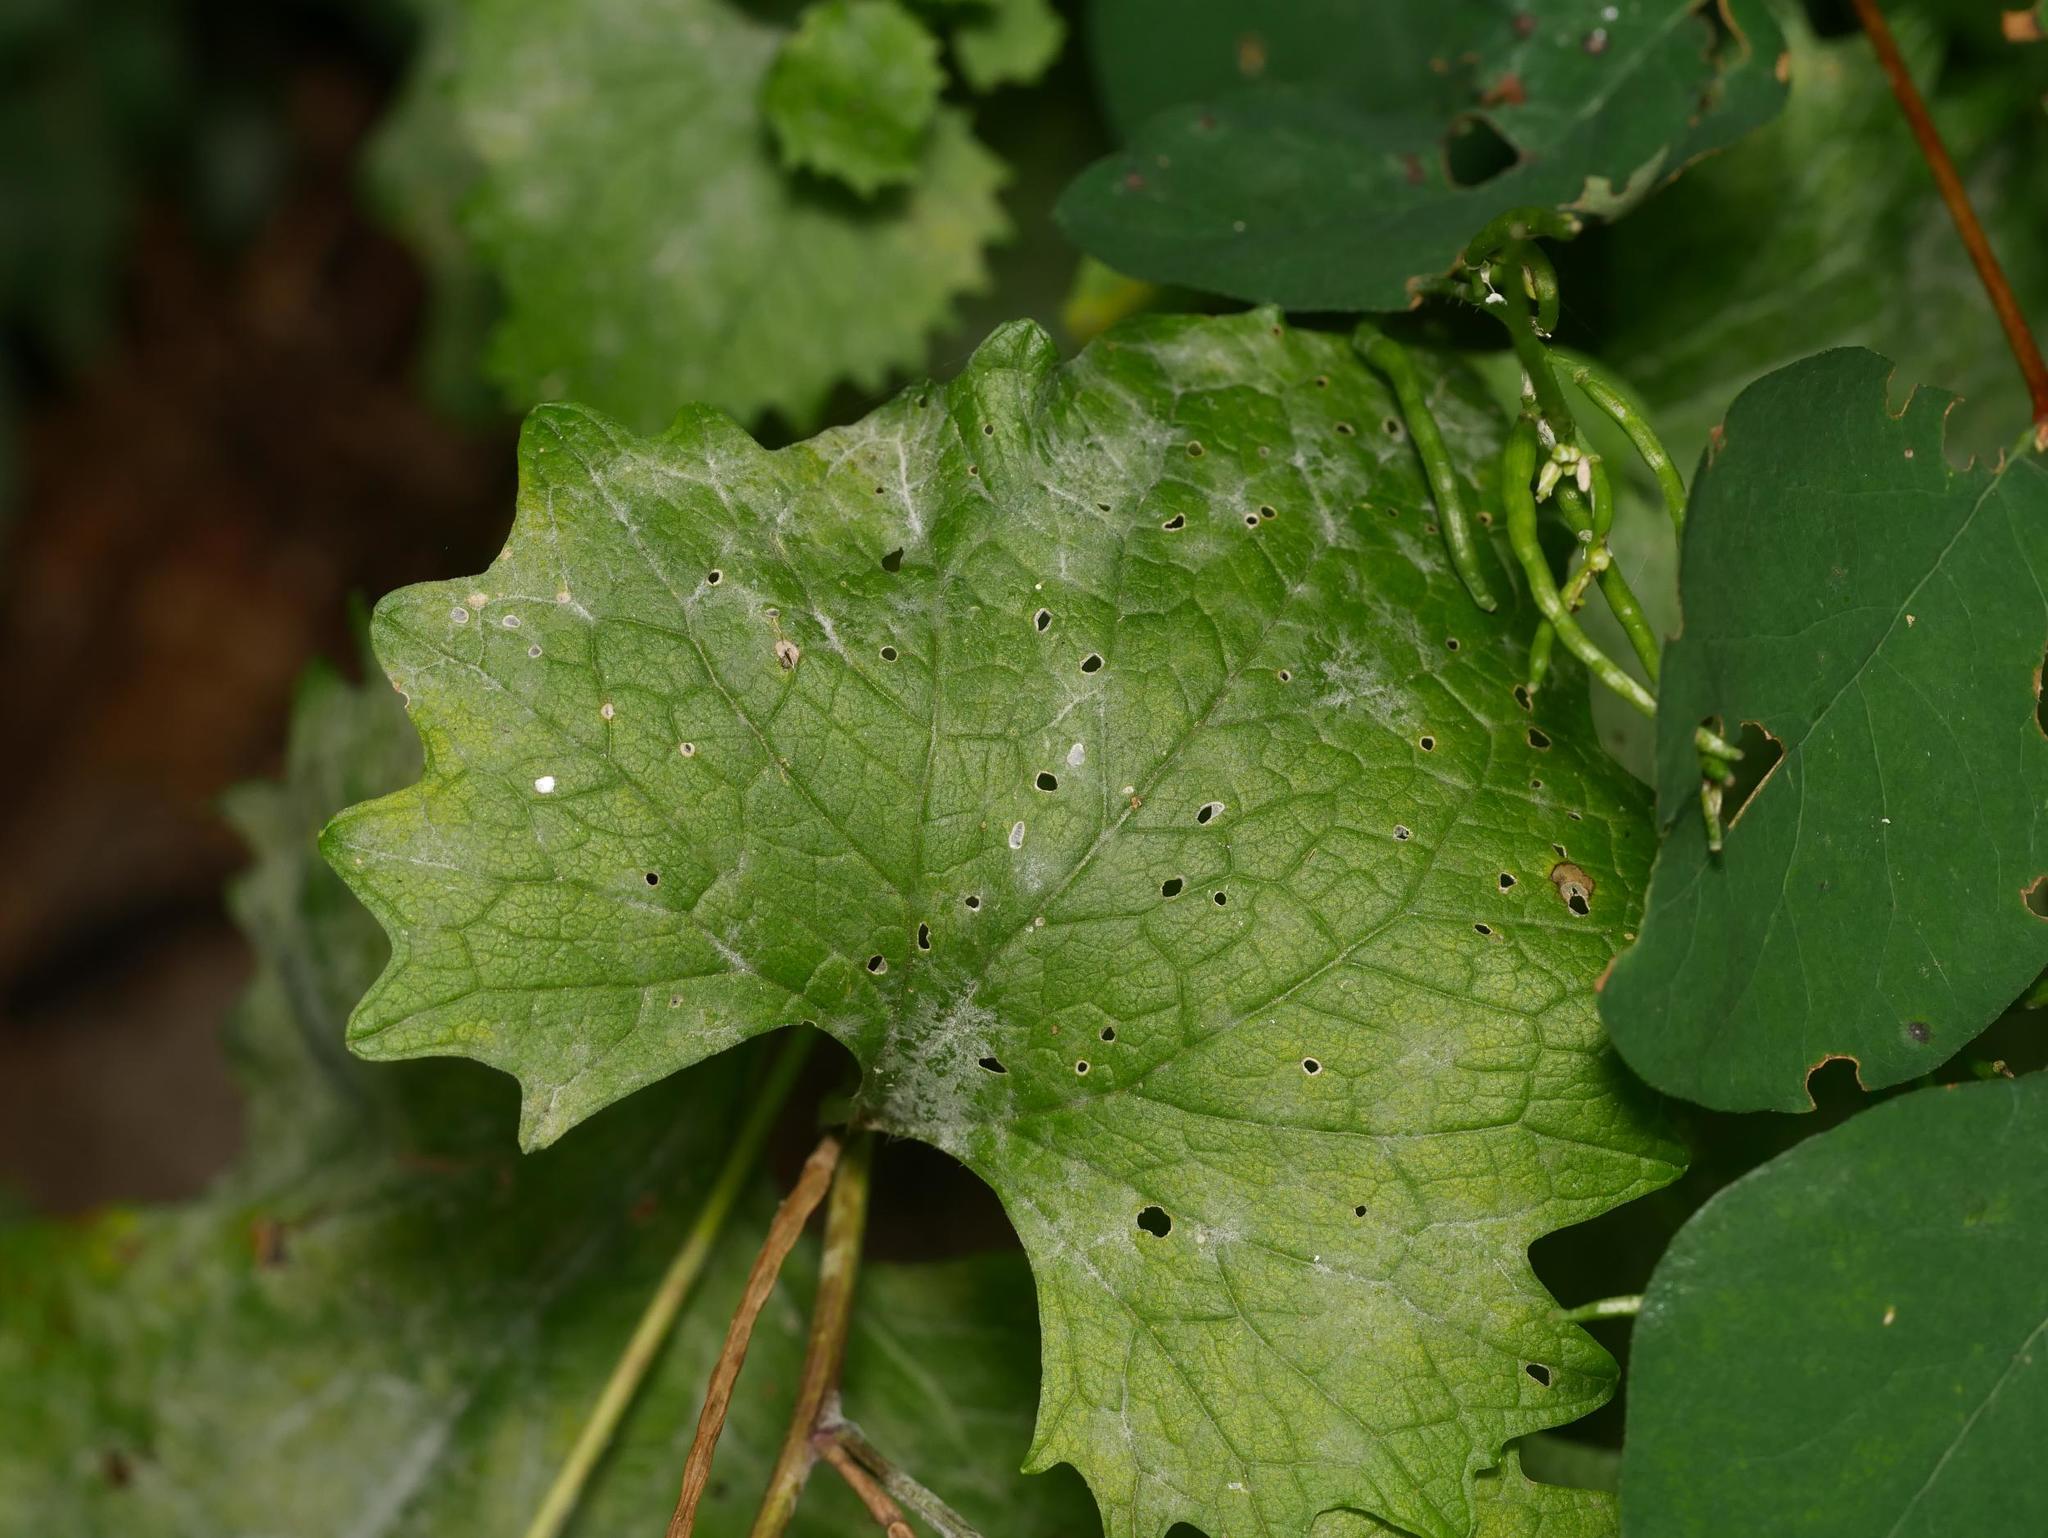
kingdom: Plantae
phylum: Tracheophyta
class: Magnoliopsida
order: Brassicales
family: Brassicaceae
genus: Alliaria
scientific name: Alliaria petiolata
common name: Garlic mustard
